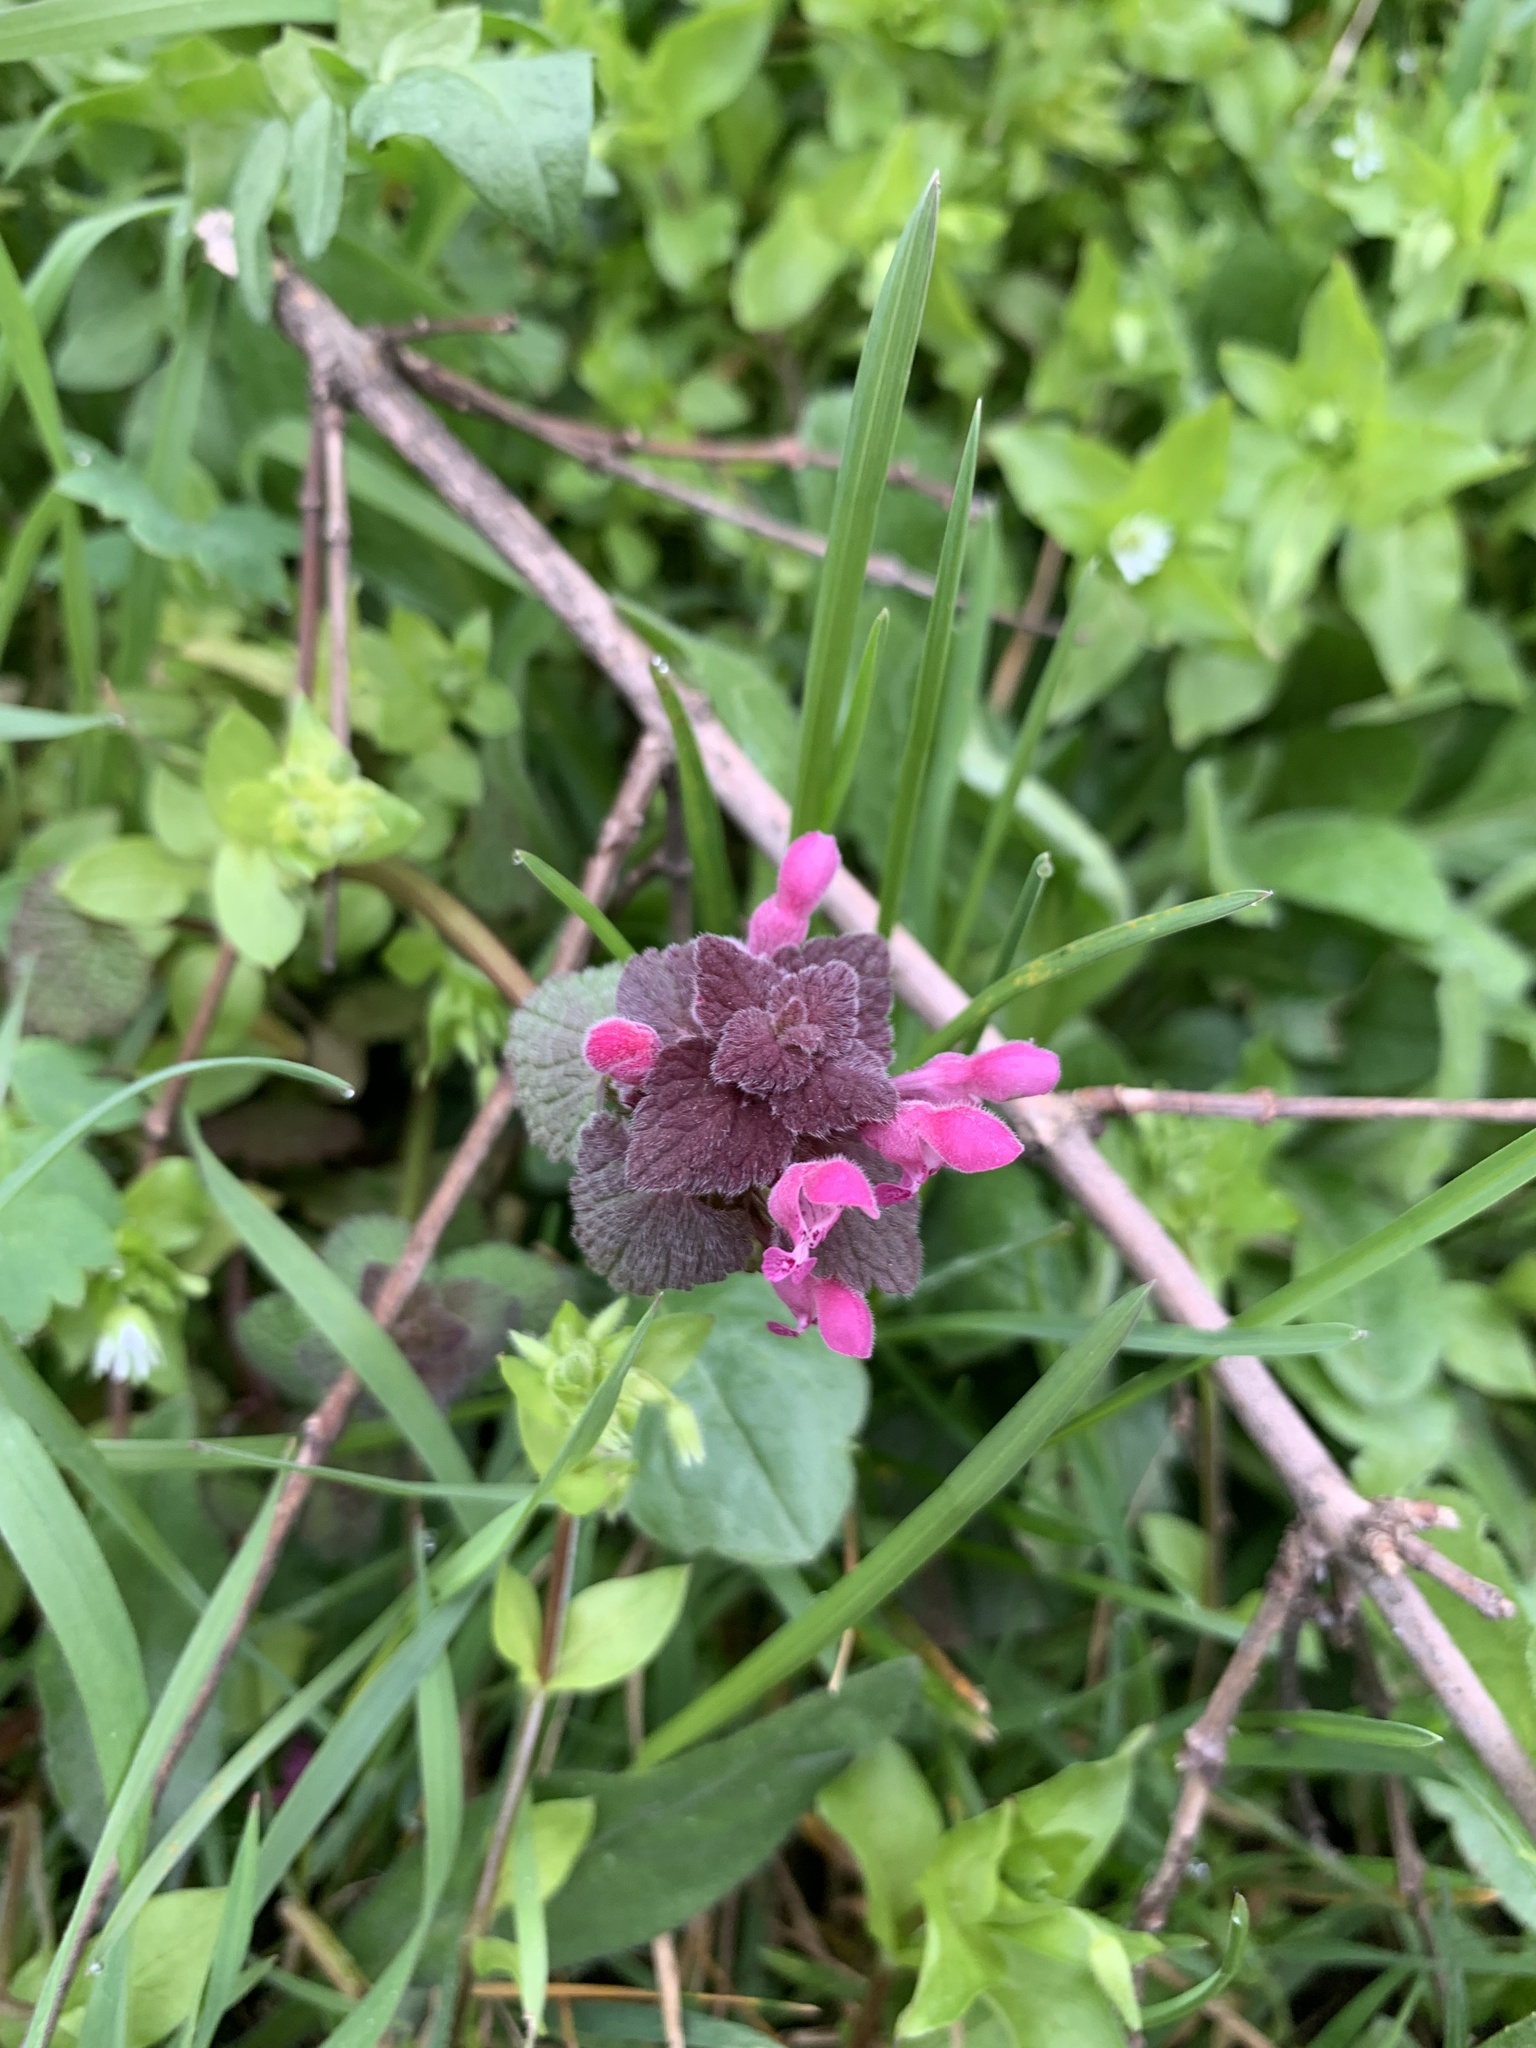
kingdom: Plantae
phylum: Tracheophyta
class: Magnoliopsida
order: Lamiales
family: Lamiaceae
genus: Lamium
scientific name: Lamium purpureum
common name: Red dead-nettle
